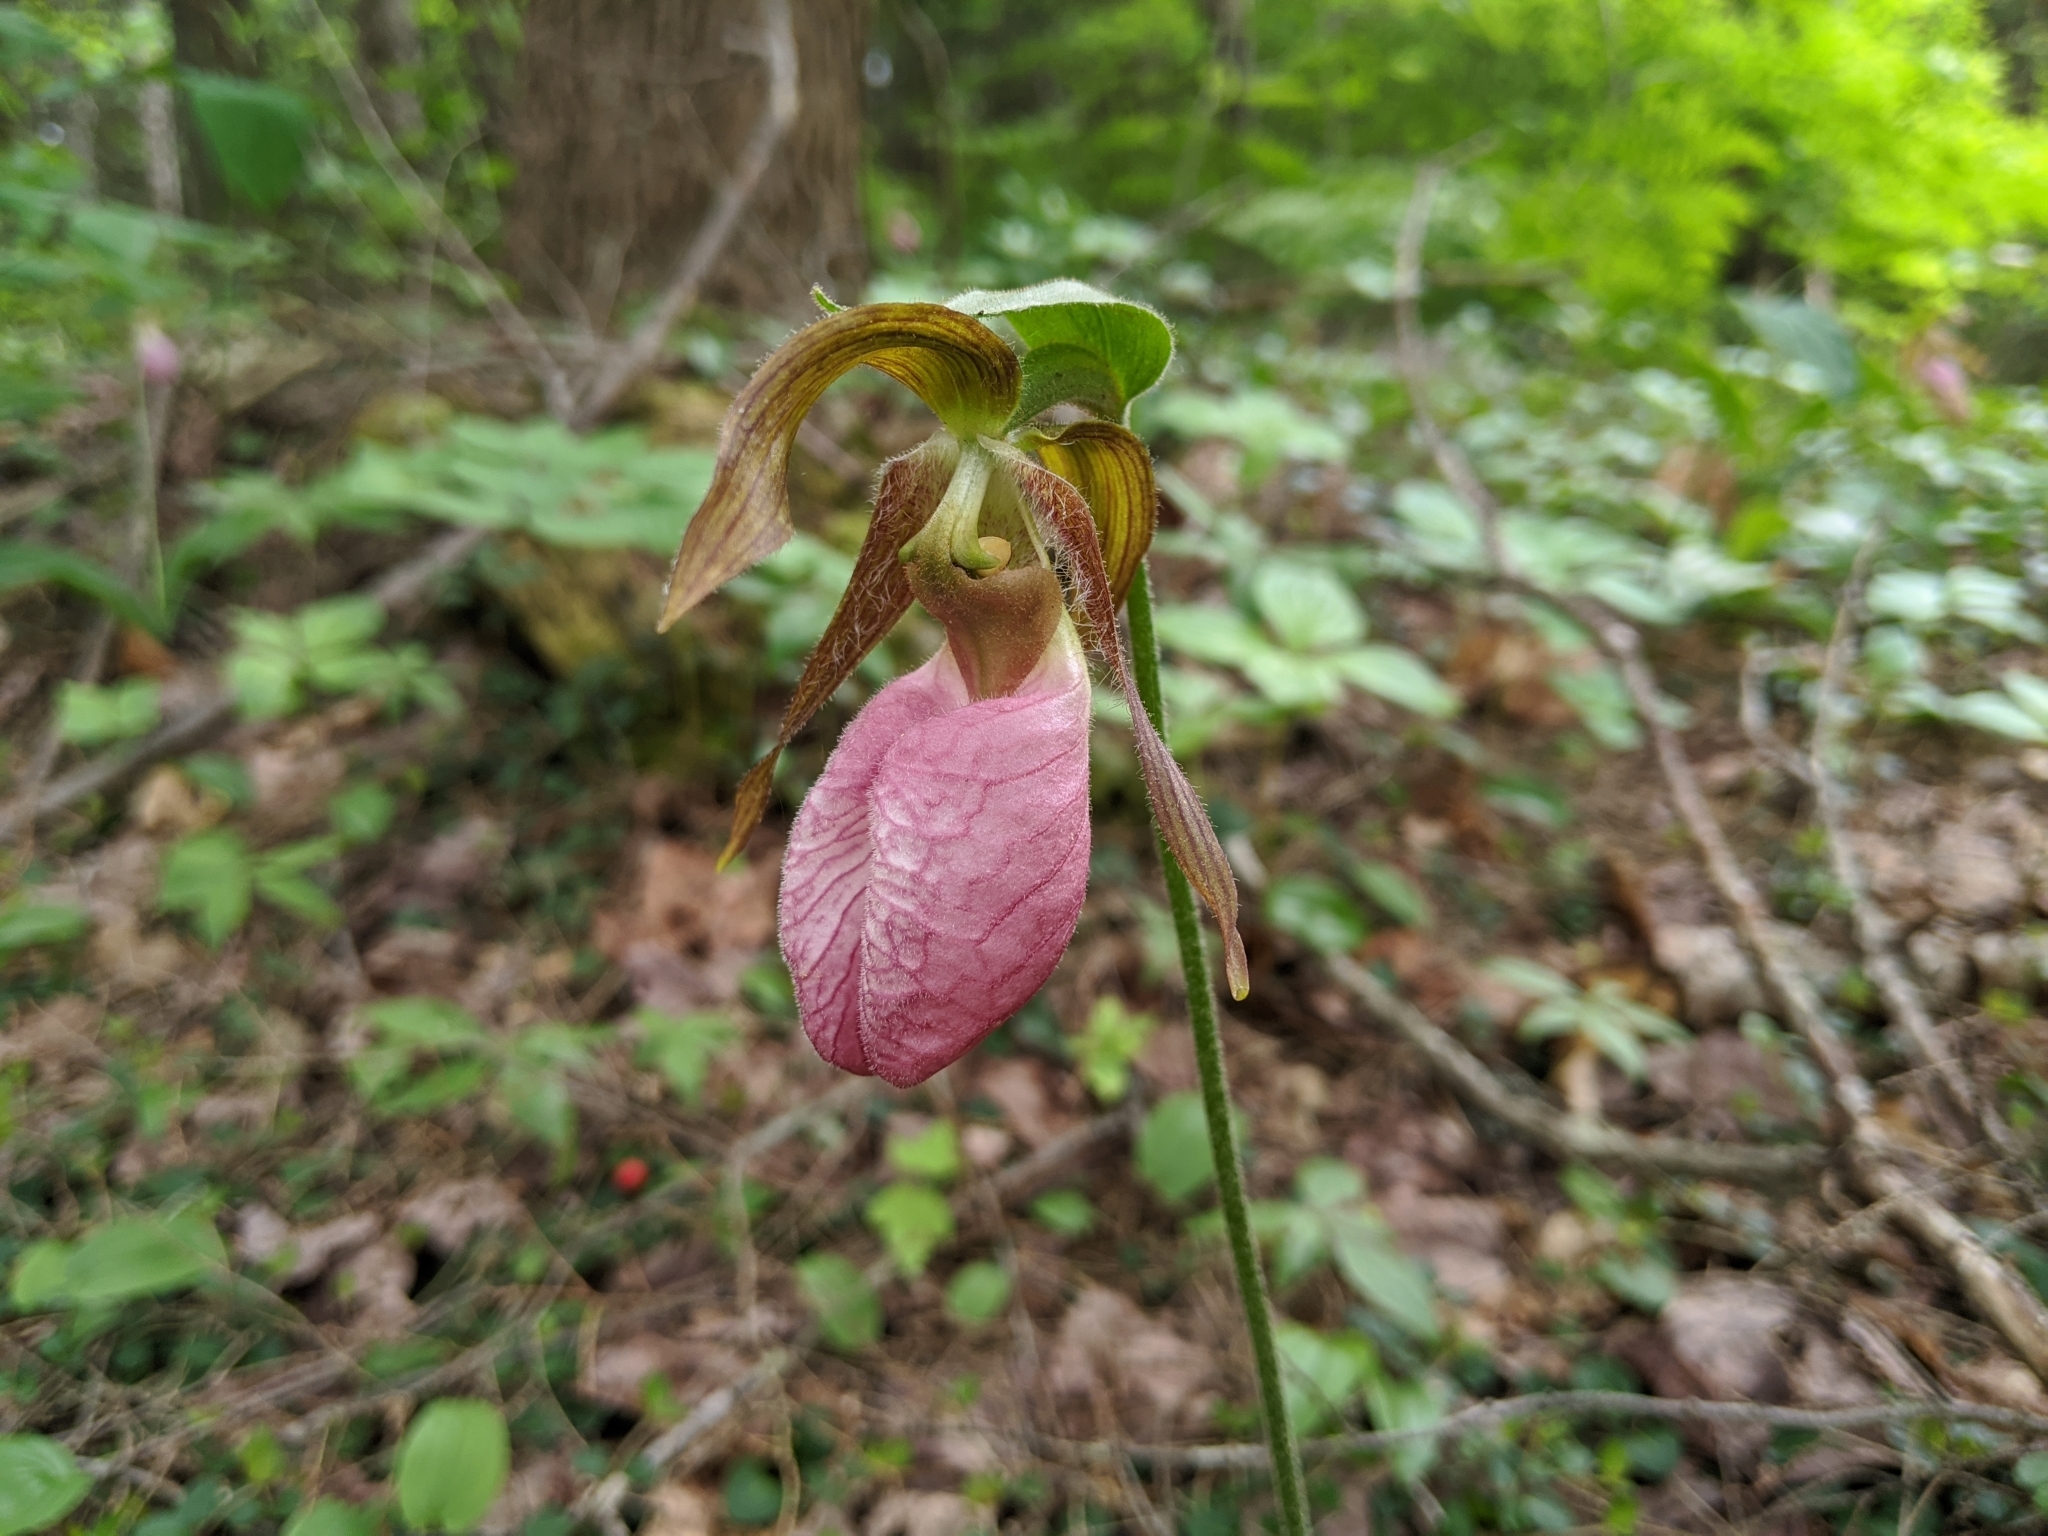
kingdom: Plantae
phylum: Tracheophyta
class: Liliopsida
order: Asparagales
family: Orchidaceae
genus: Cypripedium
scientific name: Cypripedium acaule
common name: Pink lady's-slipper
